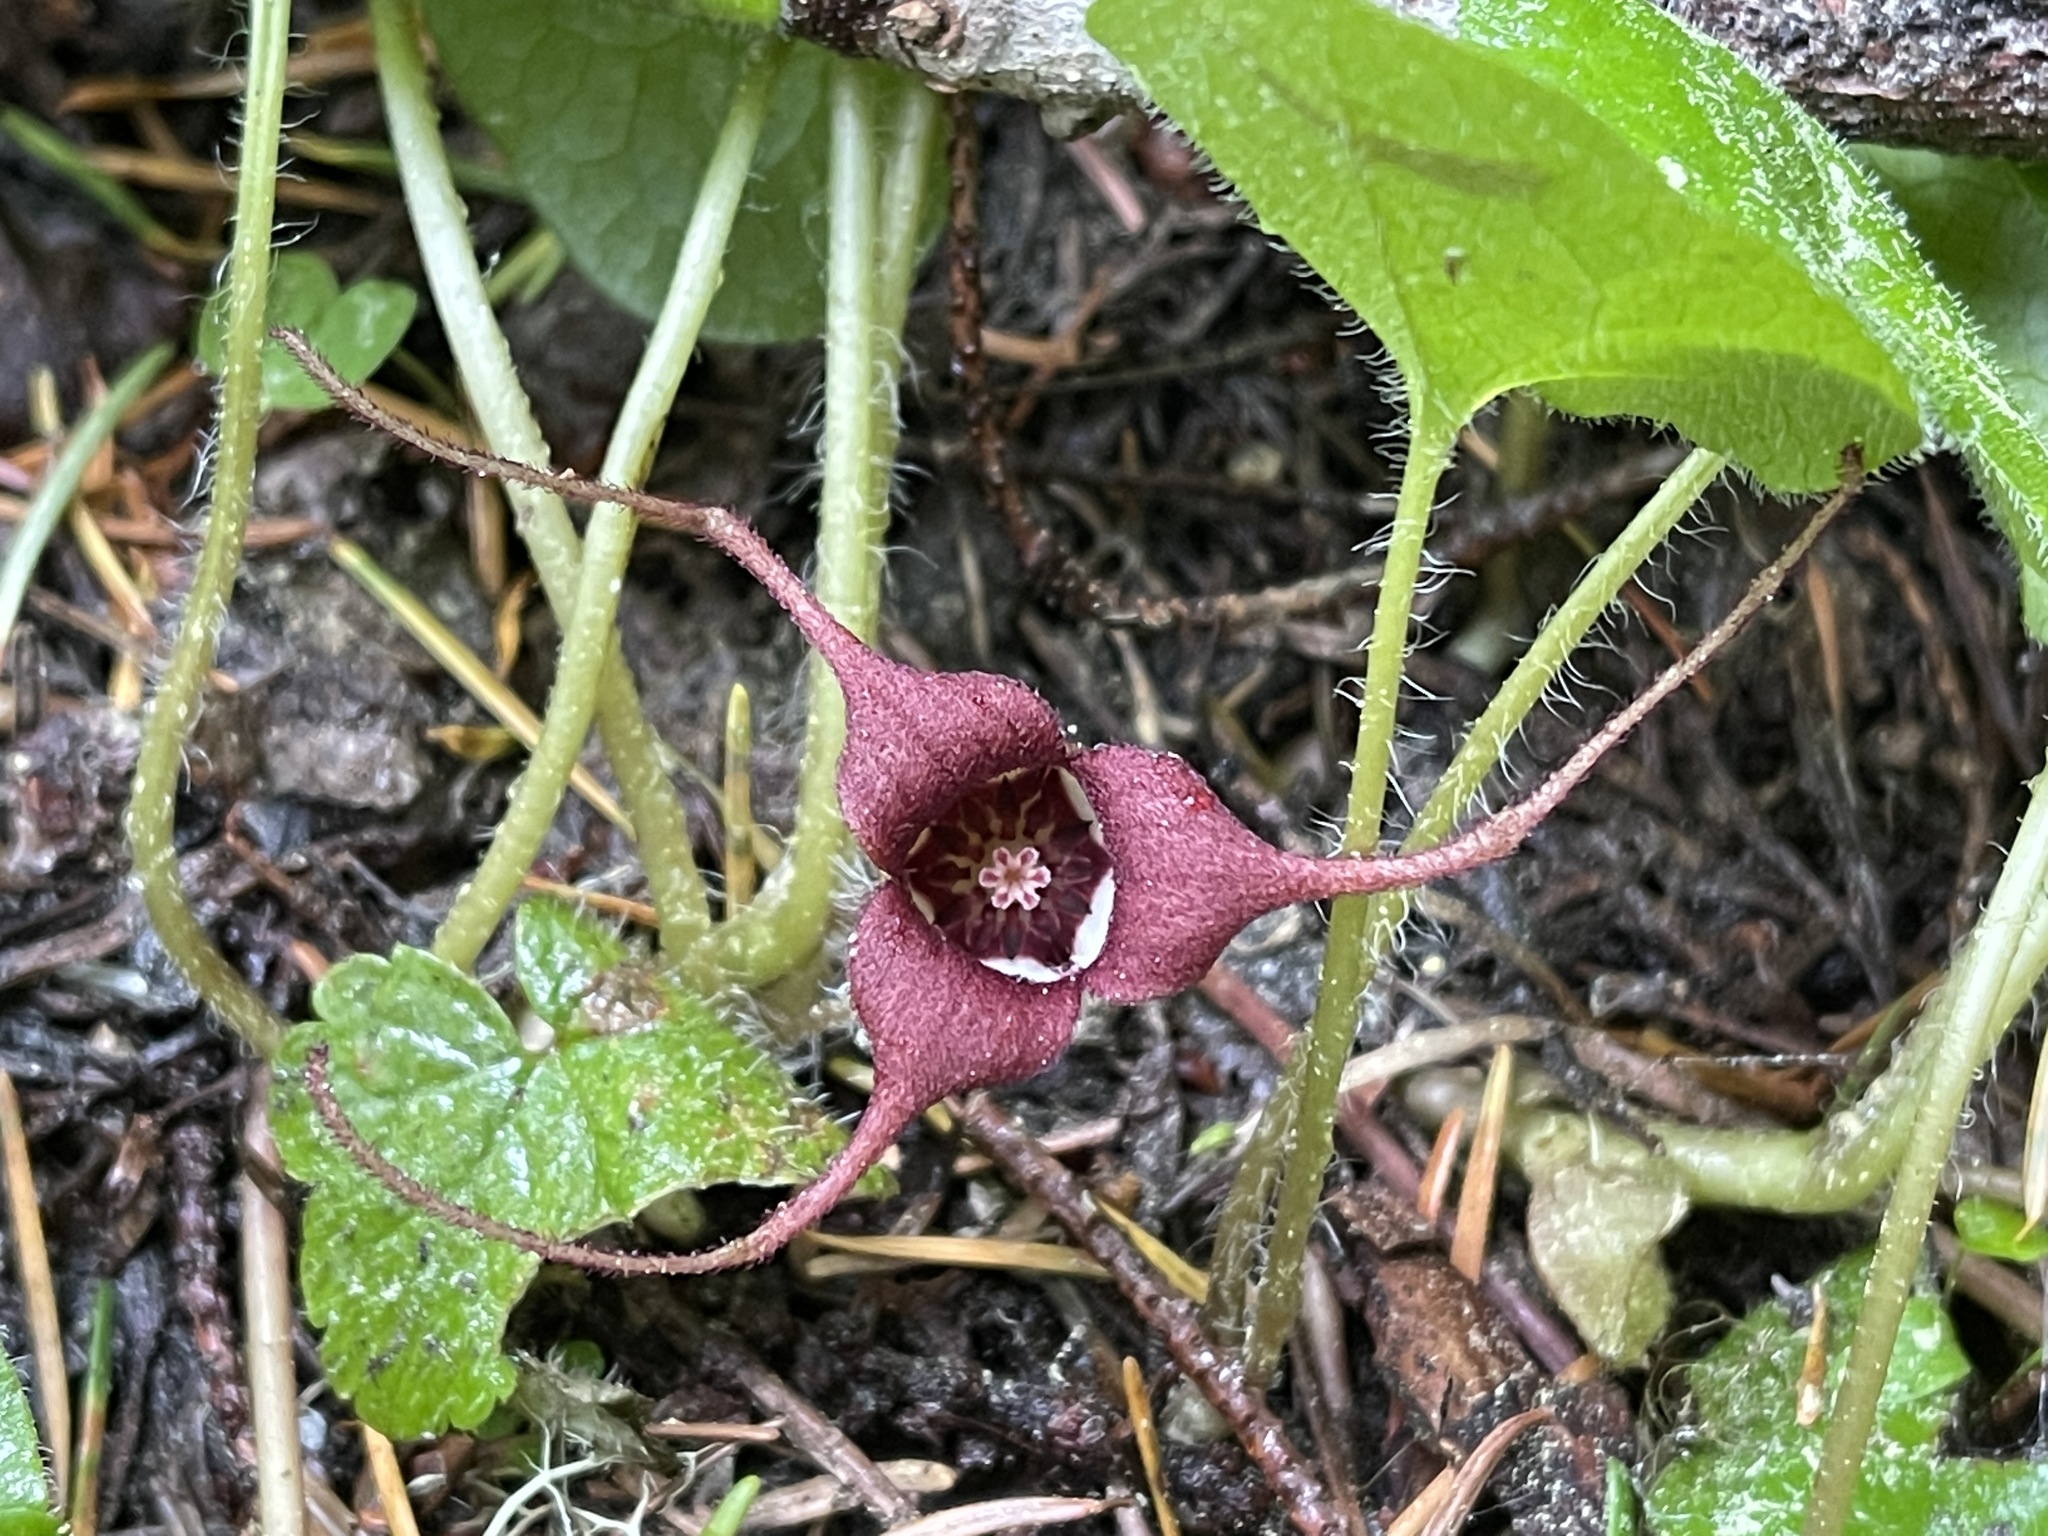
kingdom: Plantae
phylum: Tracheophyta
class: Magnoliopsida
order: Piperales
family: Aristolochiaceae
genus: Asarum
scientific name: Asarum caudatum
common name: Wild ginger
